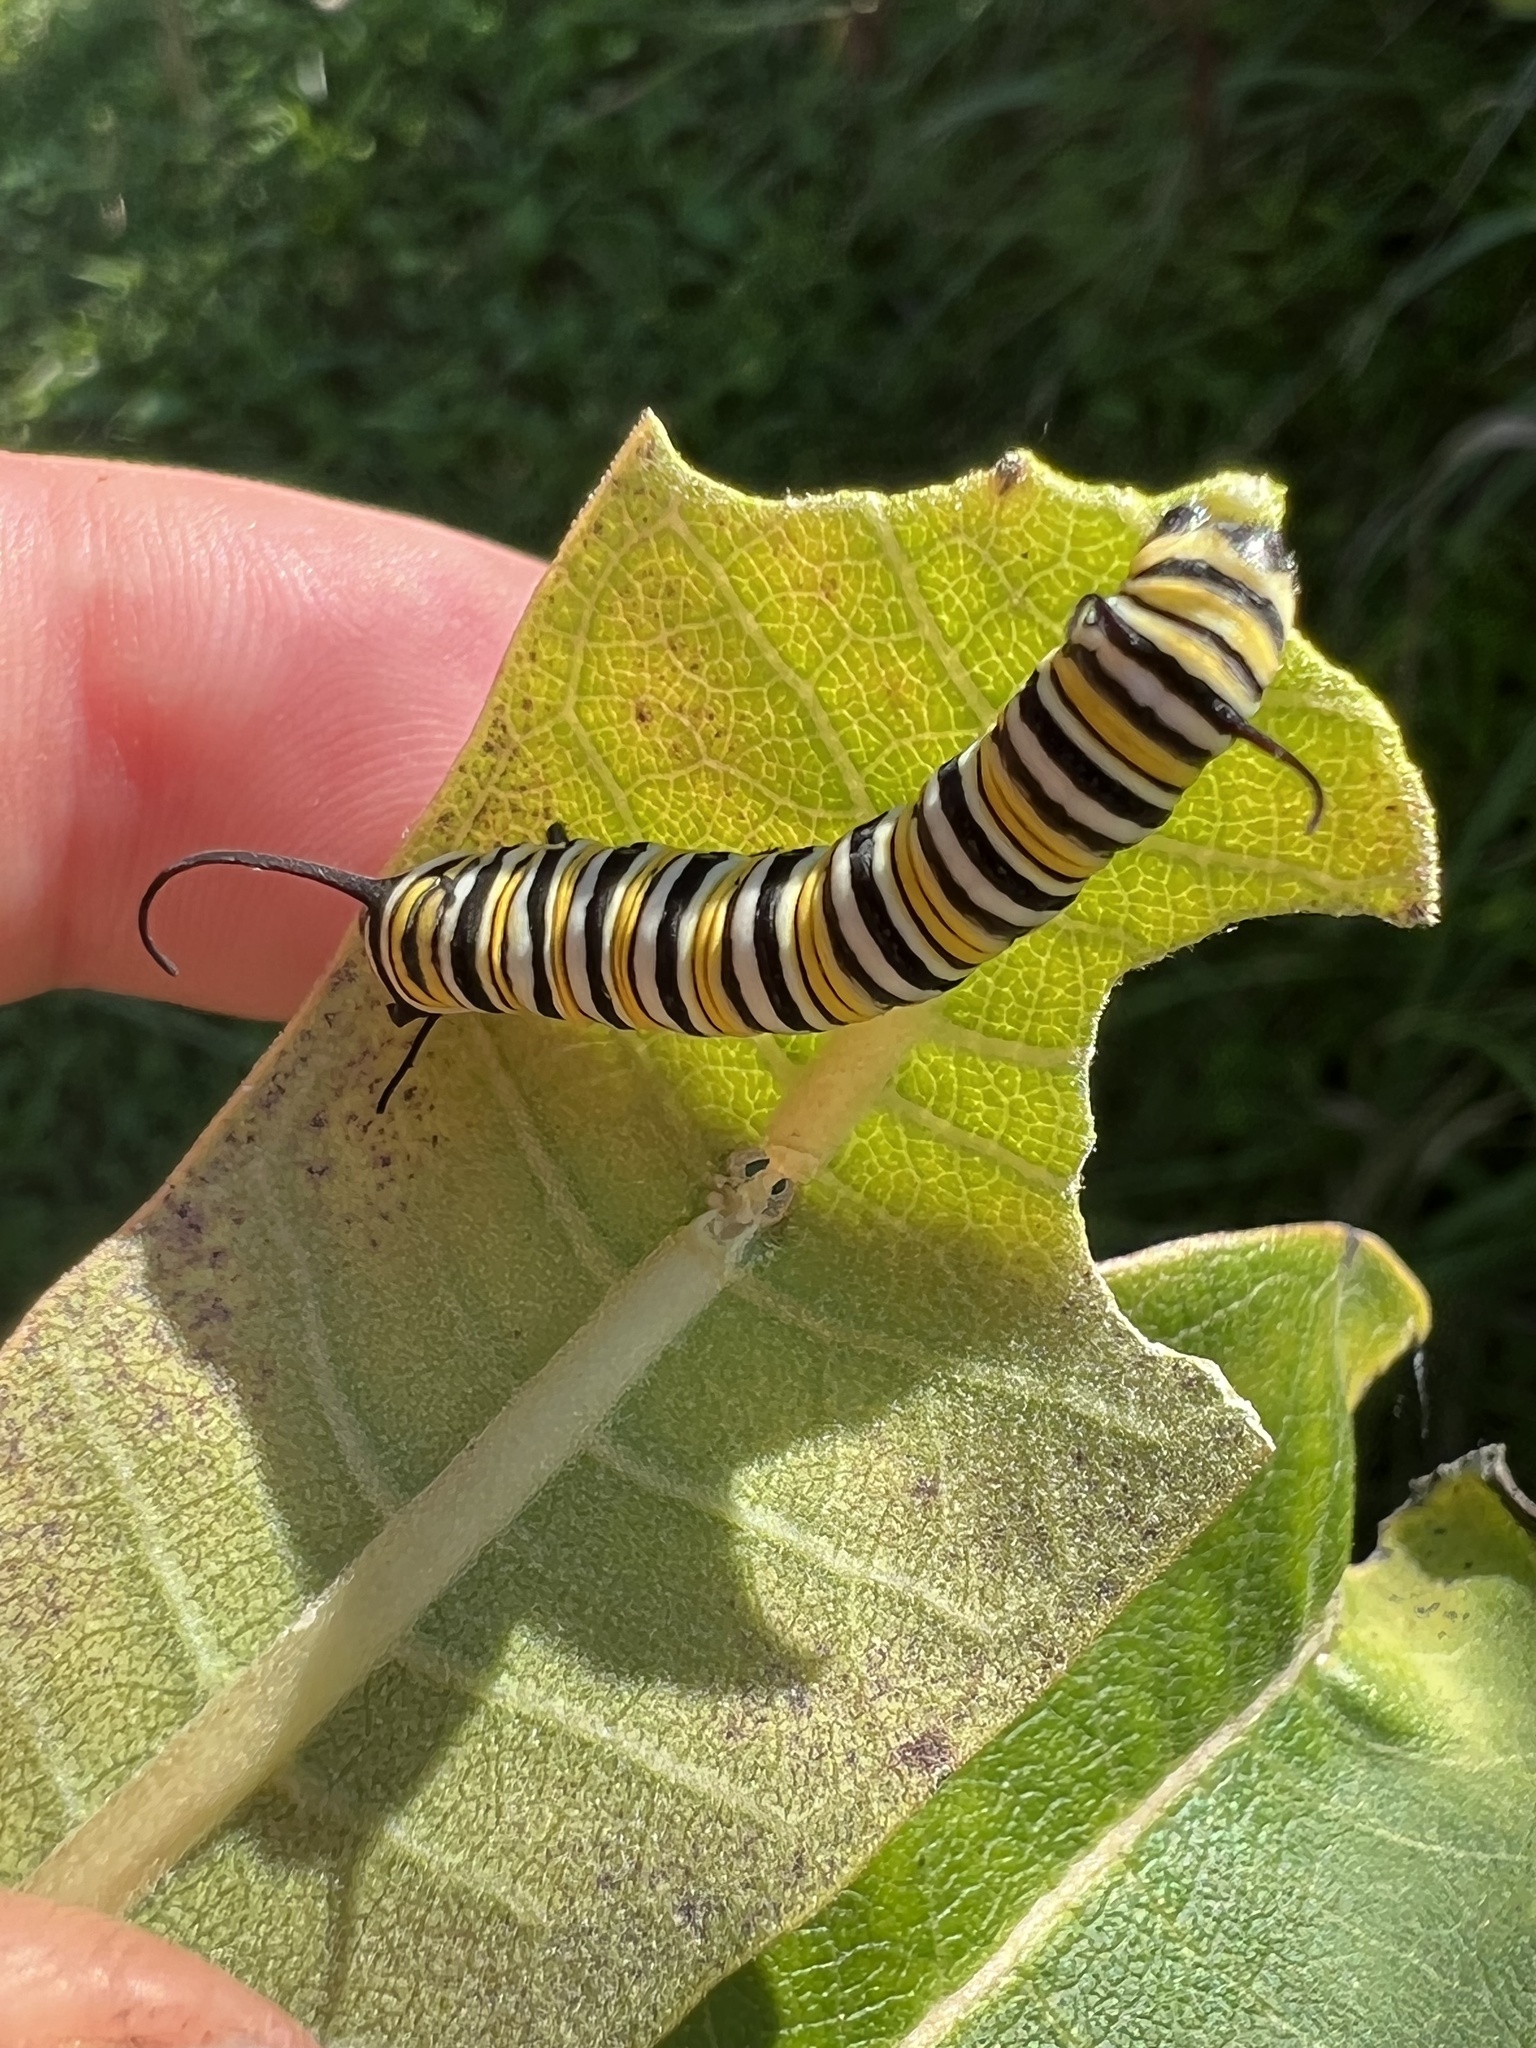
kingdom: Animalia
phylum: Arthropoda
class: Insecta
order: Lepidoptera
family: Nymphalidae
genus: Danaus
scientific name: Danaus plexippus
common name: Monarch
